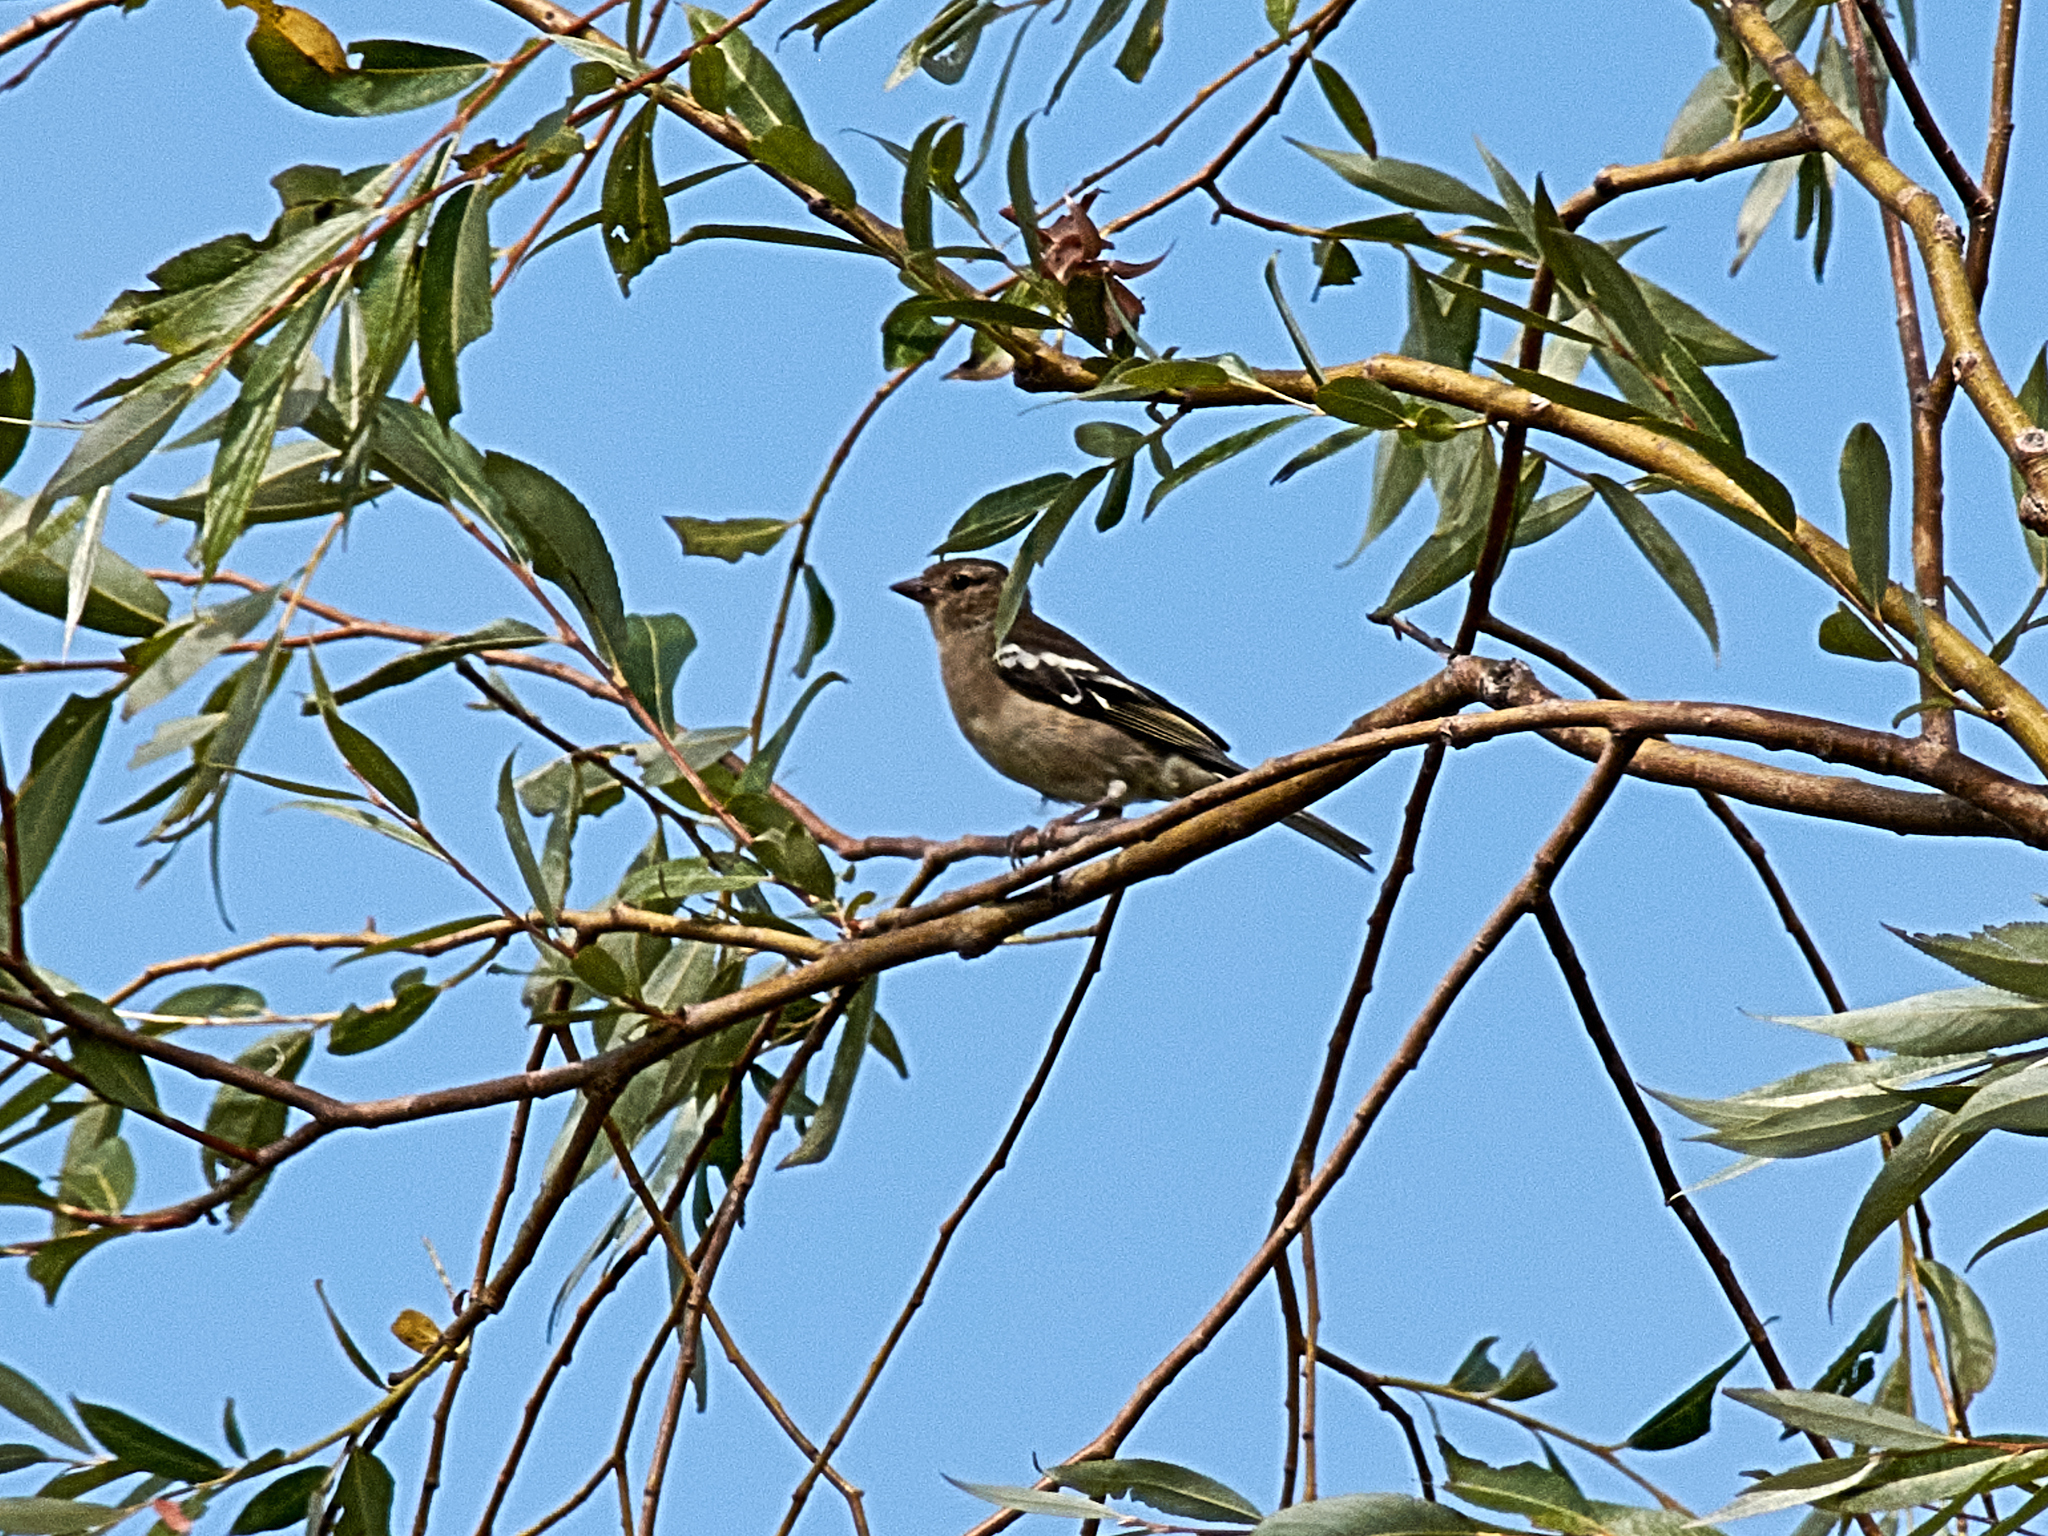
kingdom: Animalia
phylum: Chordata
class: Aves
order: Passeriformes
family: Fringillidae
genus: Fringilla
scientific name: Fringilla coelebs
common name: Common chaffinch
